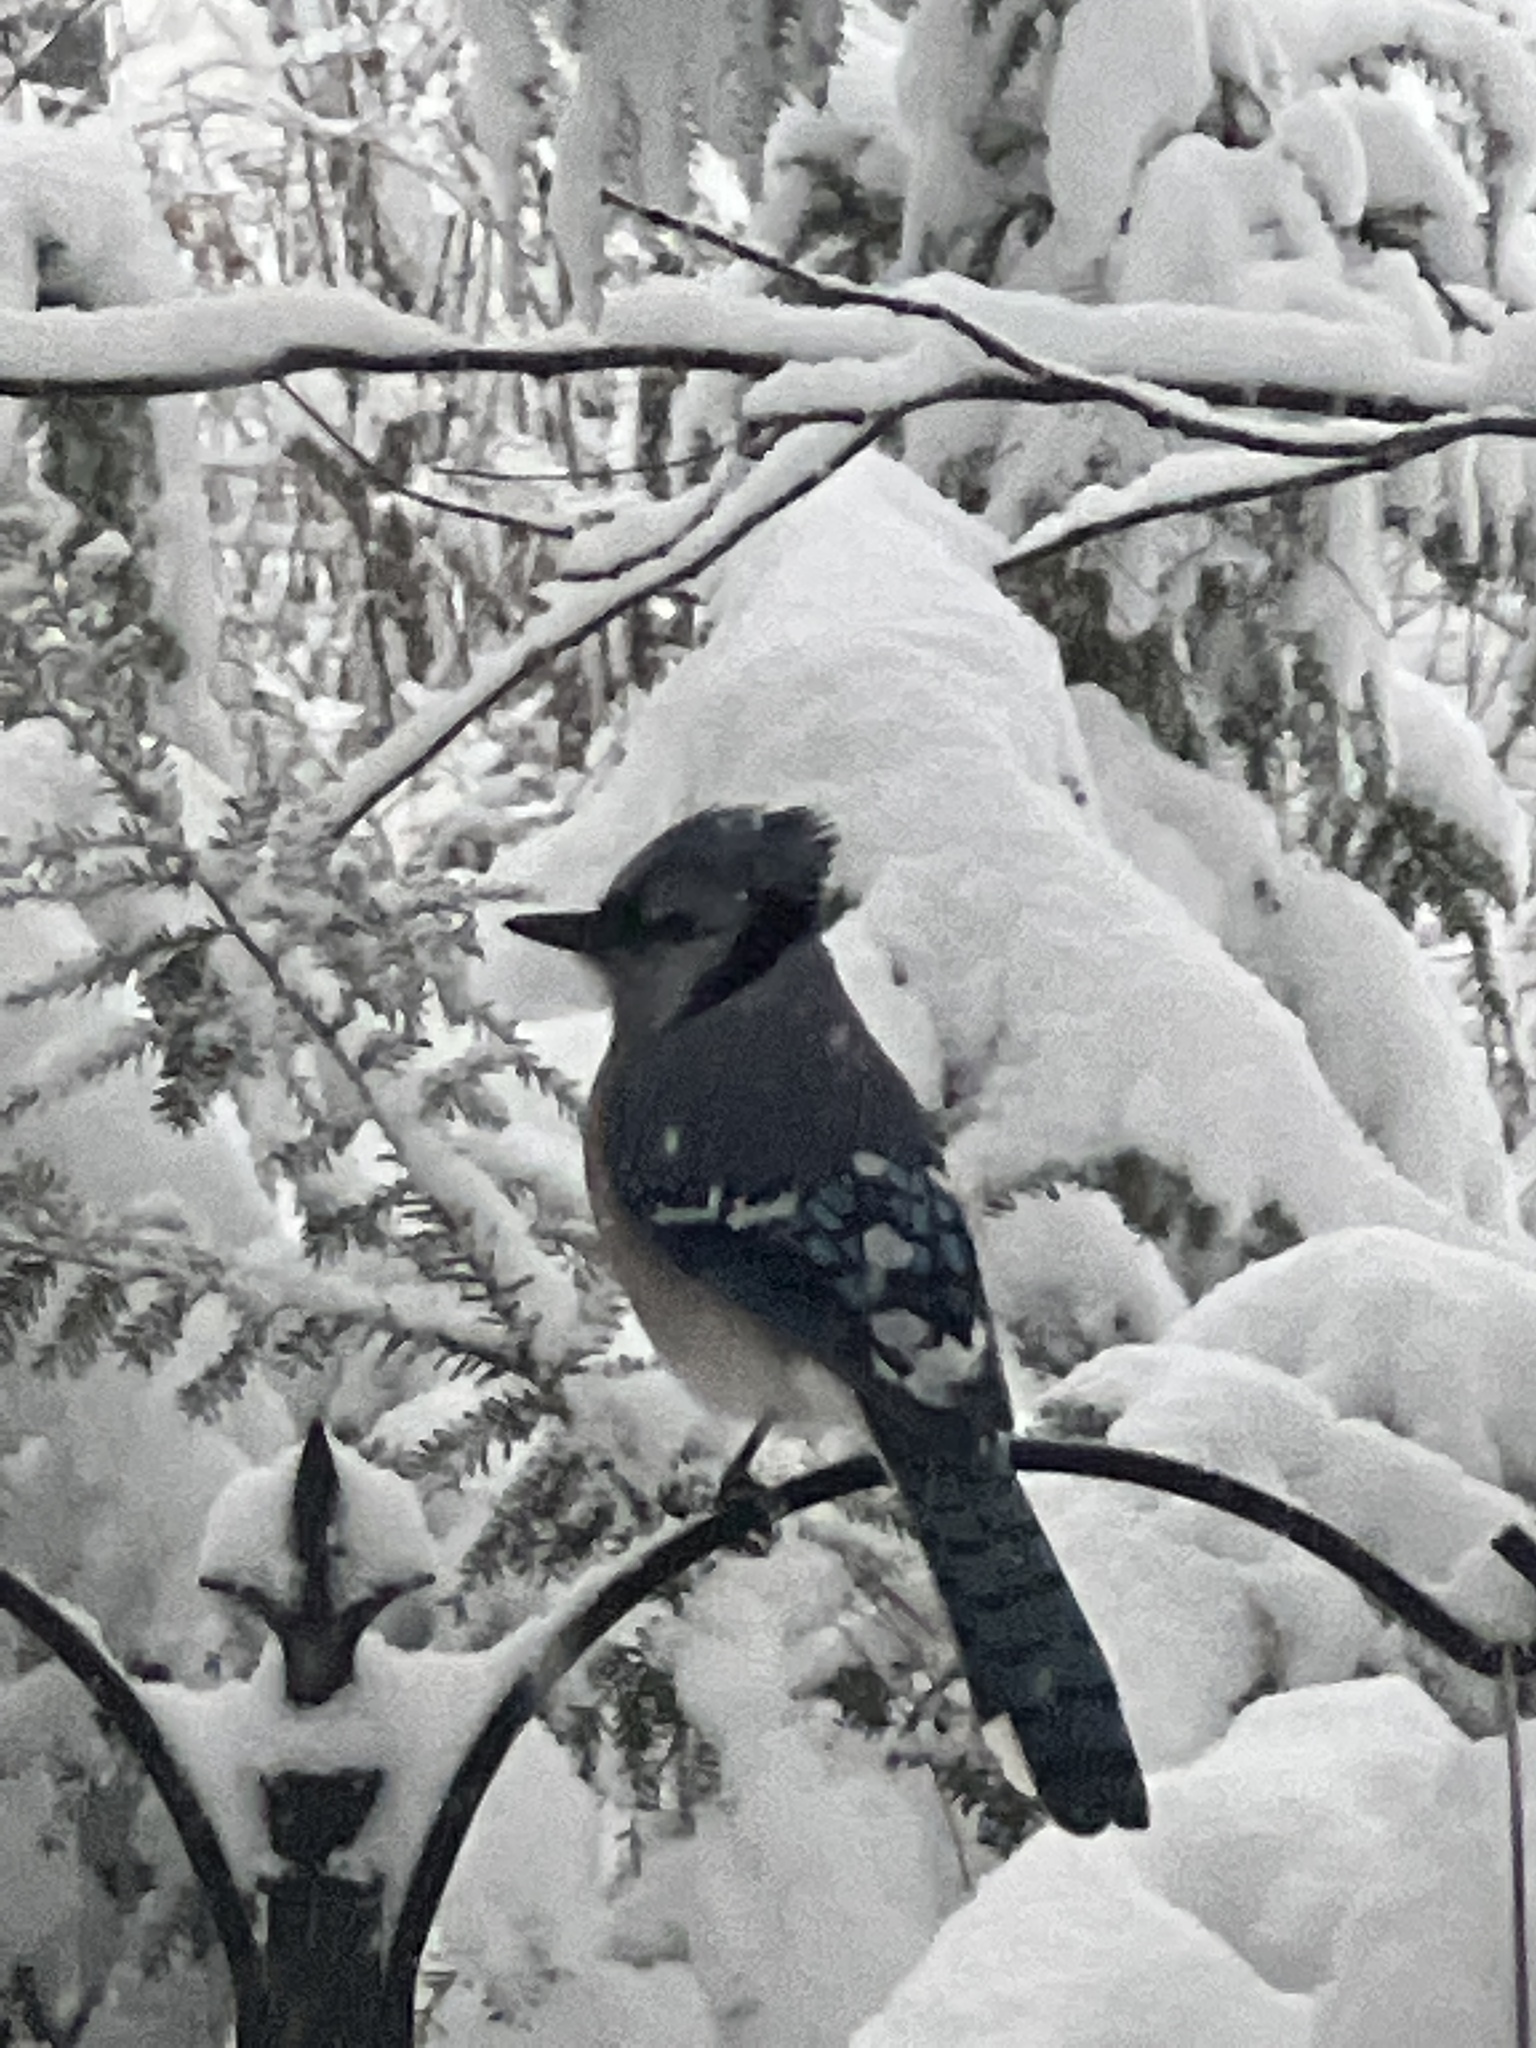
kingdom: Animalia
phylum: Chordata
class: Aves
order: Passeriformes
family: Corvidae
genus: Cyanocitta
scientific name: Cyanocitta cristata
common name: Blue jay
